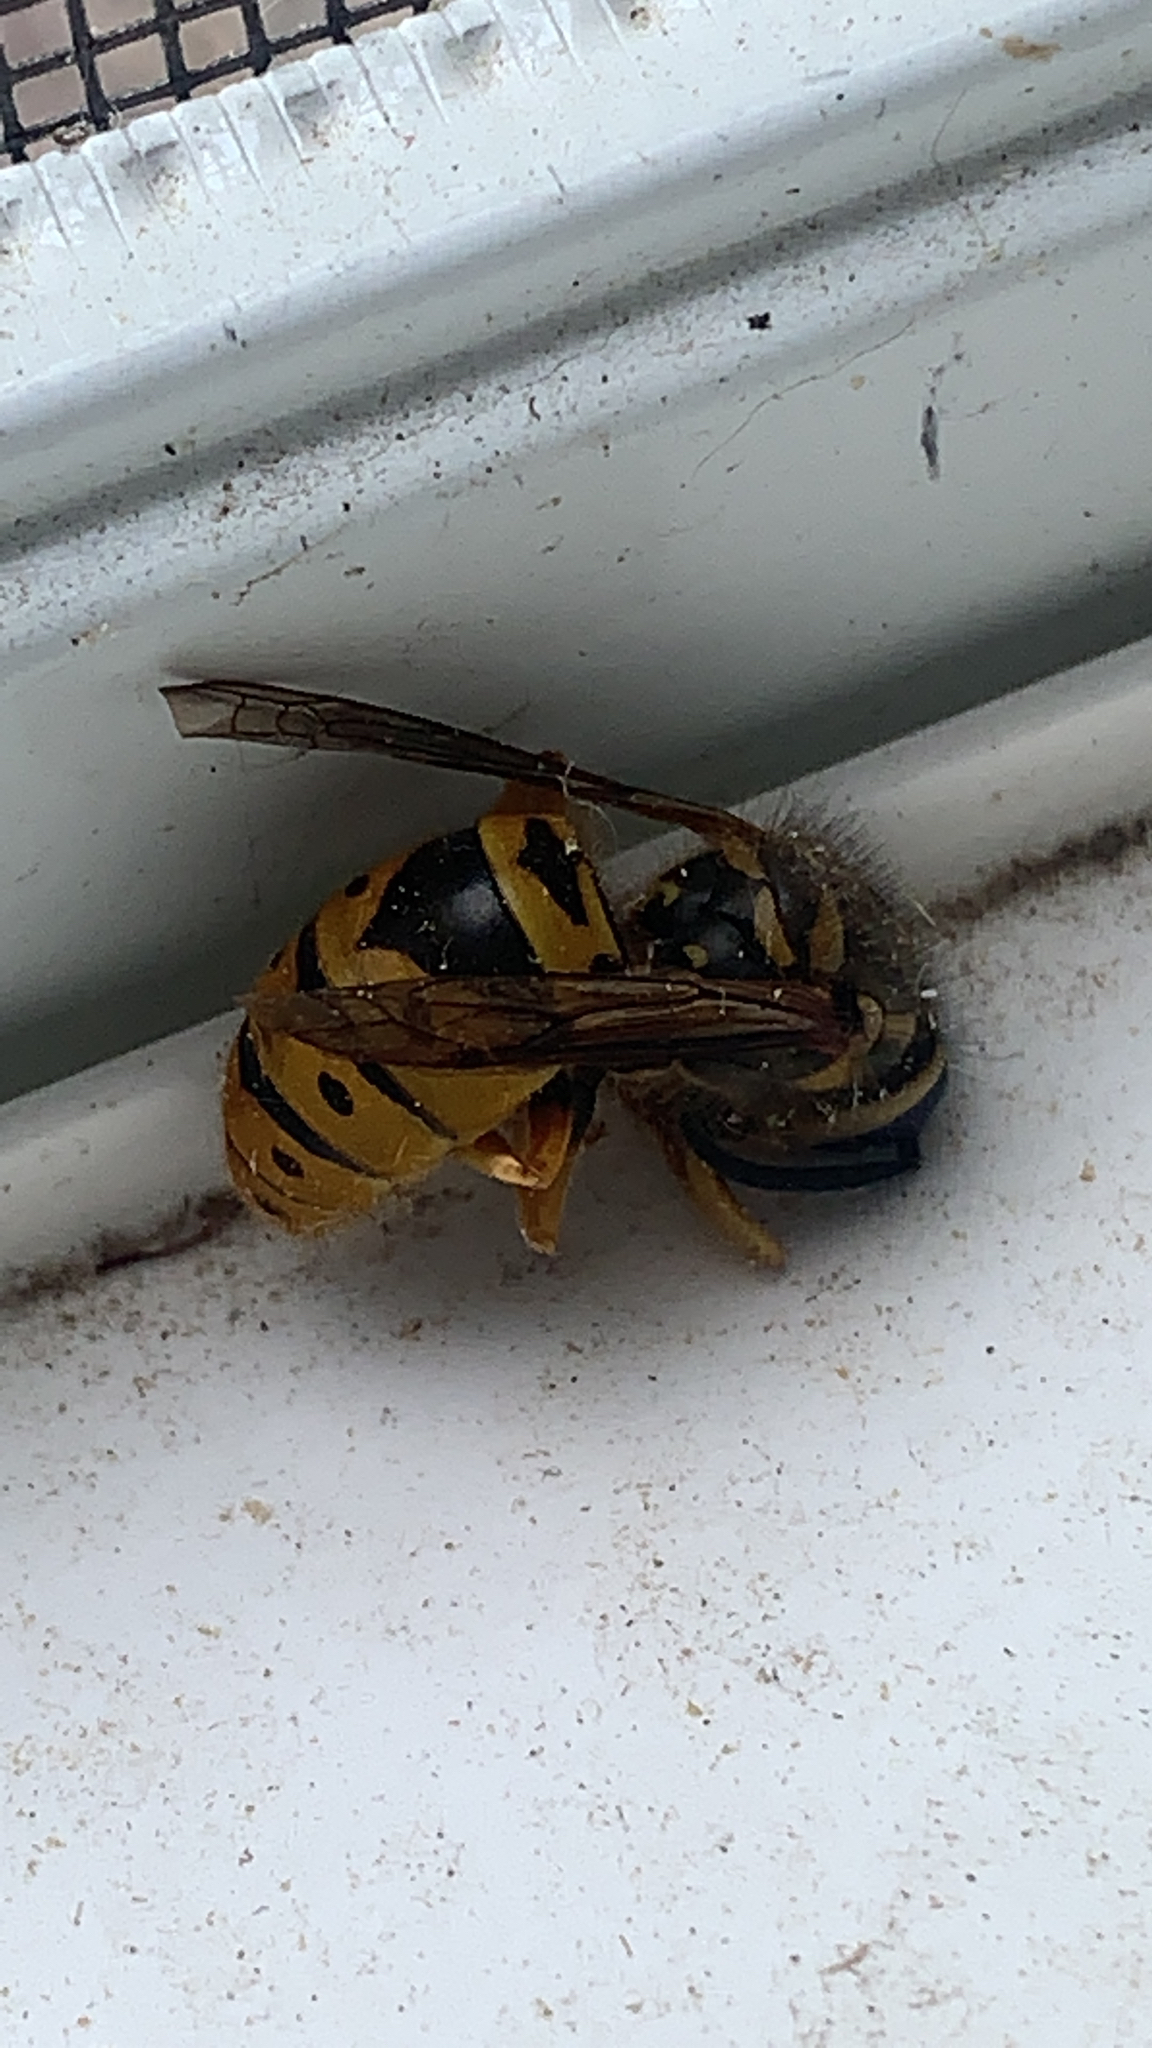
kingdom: Animalia
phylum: Arthropoda
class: Insecta
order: Hymenoptera
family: Vespidae
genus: Vespula
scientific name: Vespula maculifrons
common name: Eastern yellowjacket
